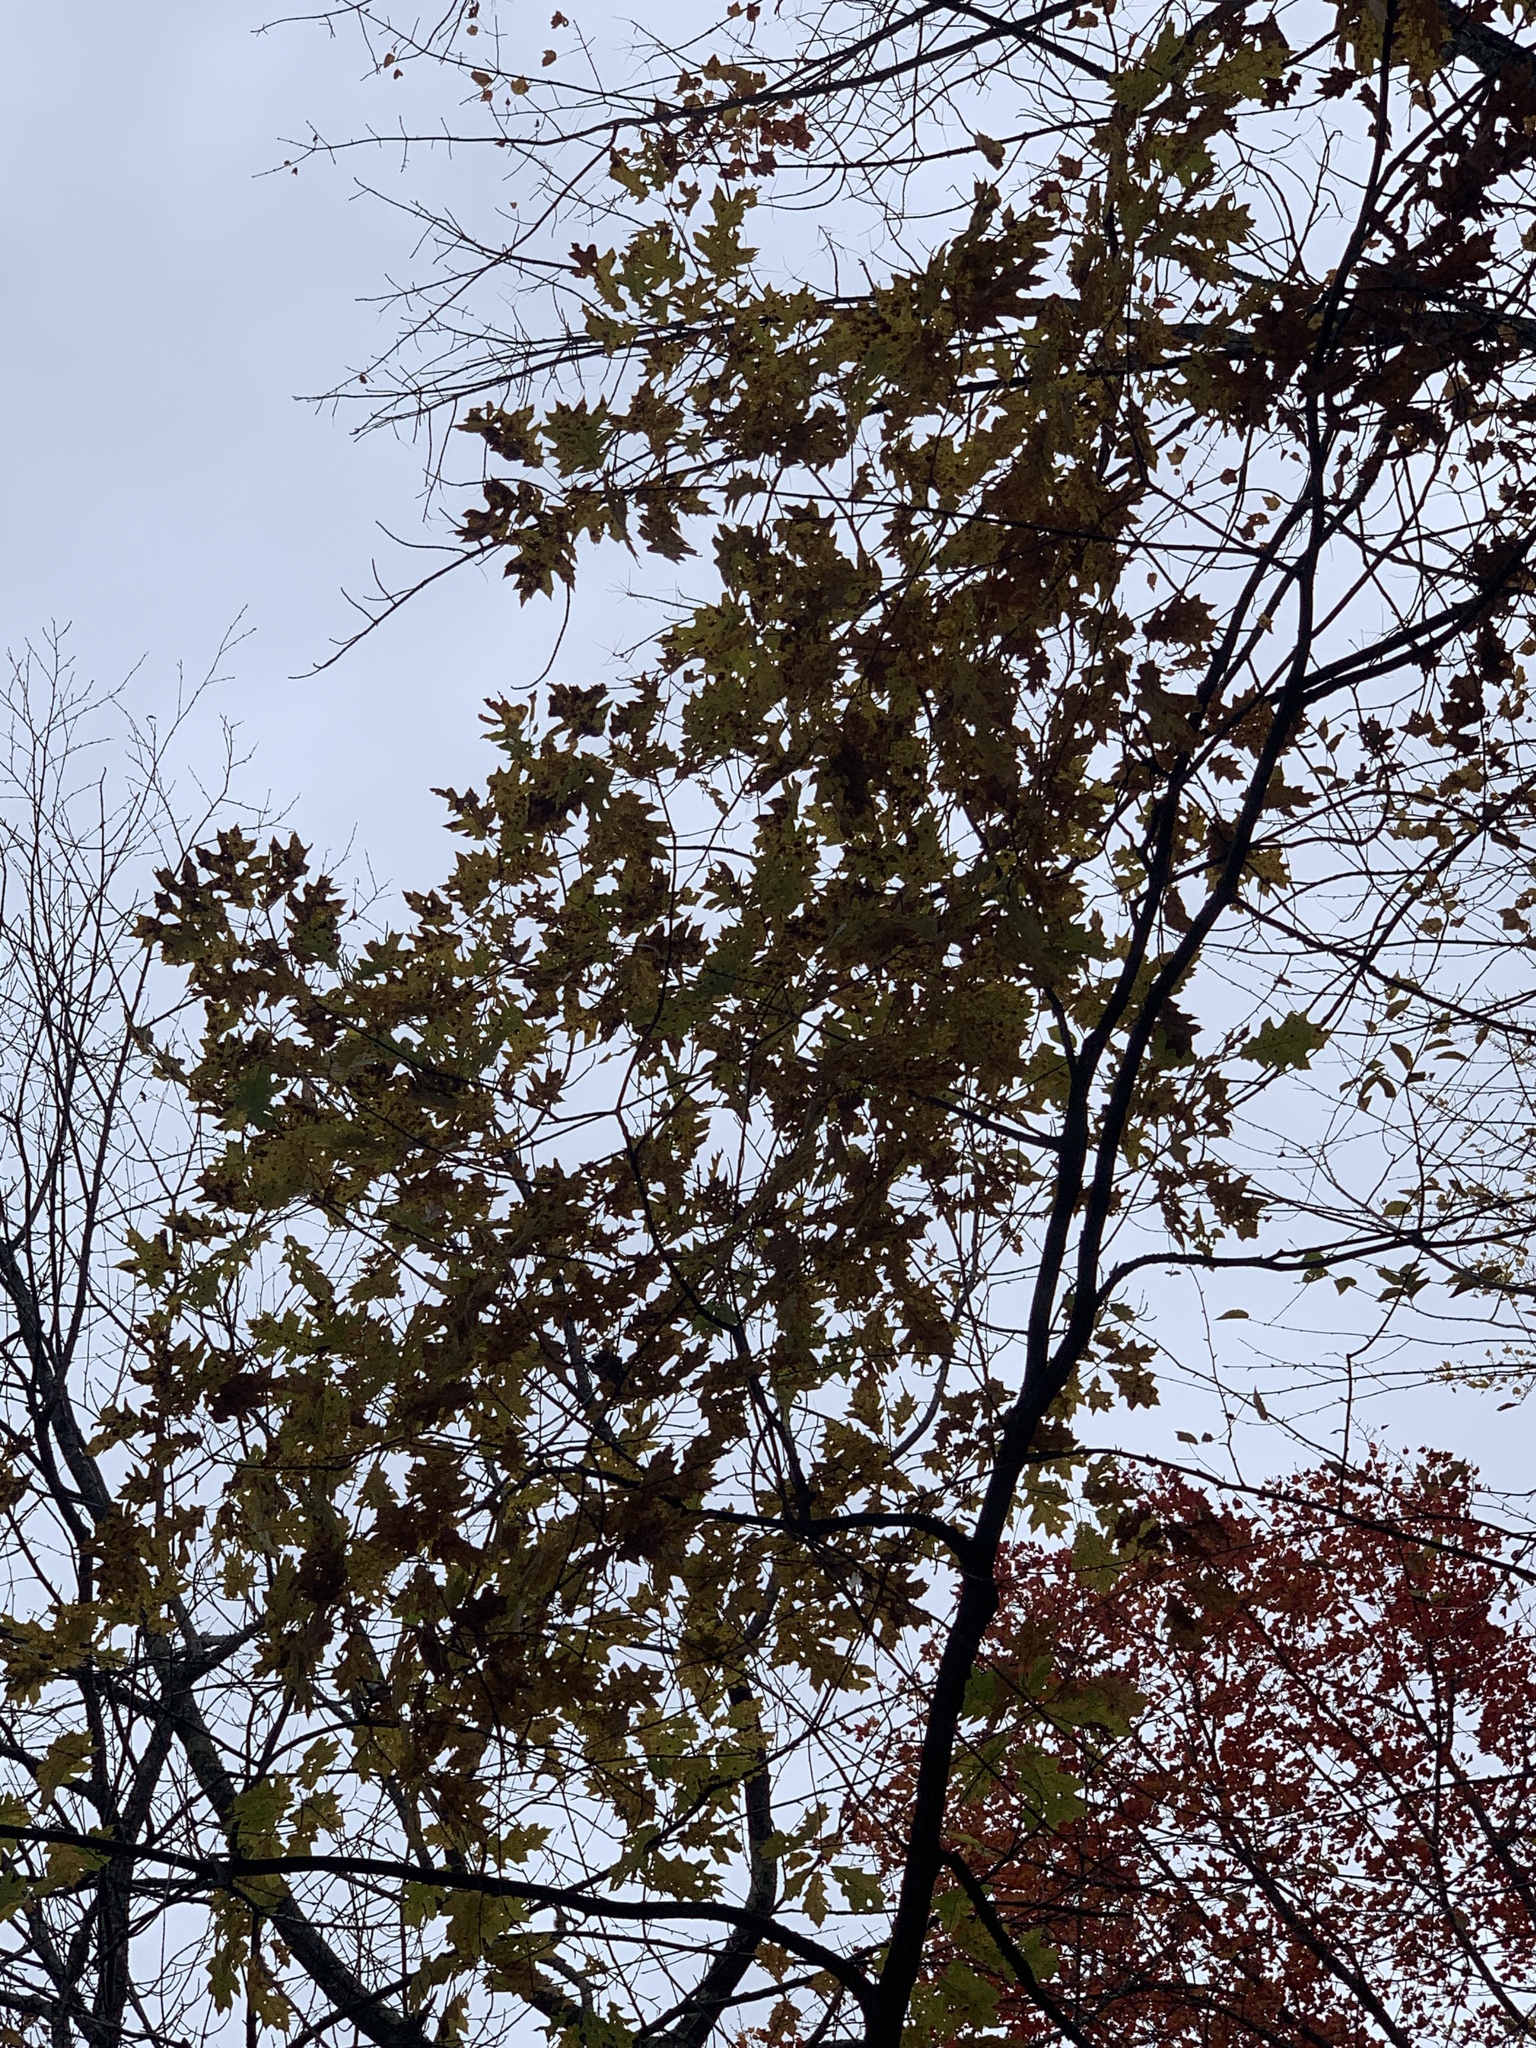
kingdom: Plantae
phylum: Tracheophyta
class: Magnoliopsida
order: Fagales
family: Fagaceae
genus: Quercus
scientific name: Quercus rubra
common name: Red oak
